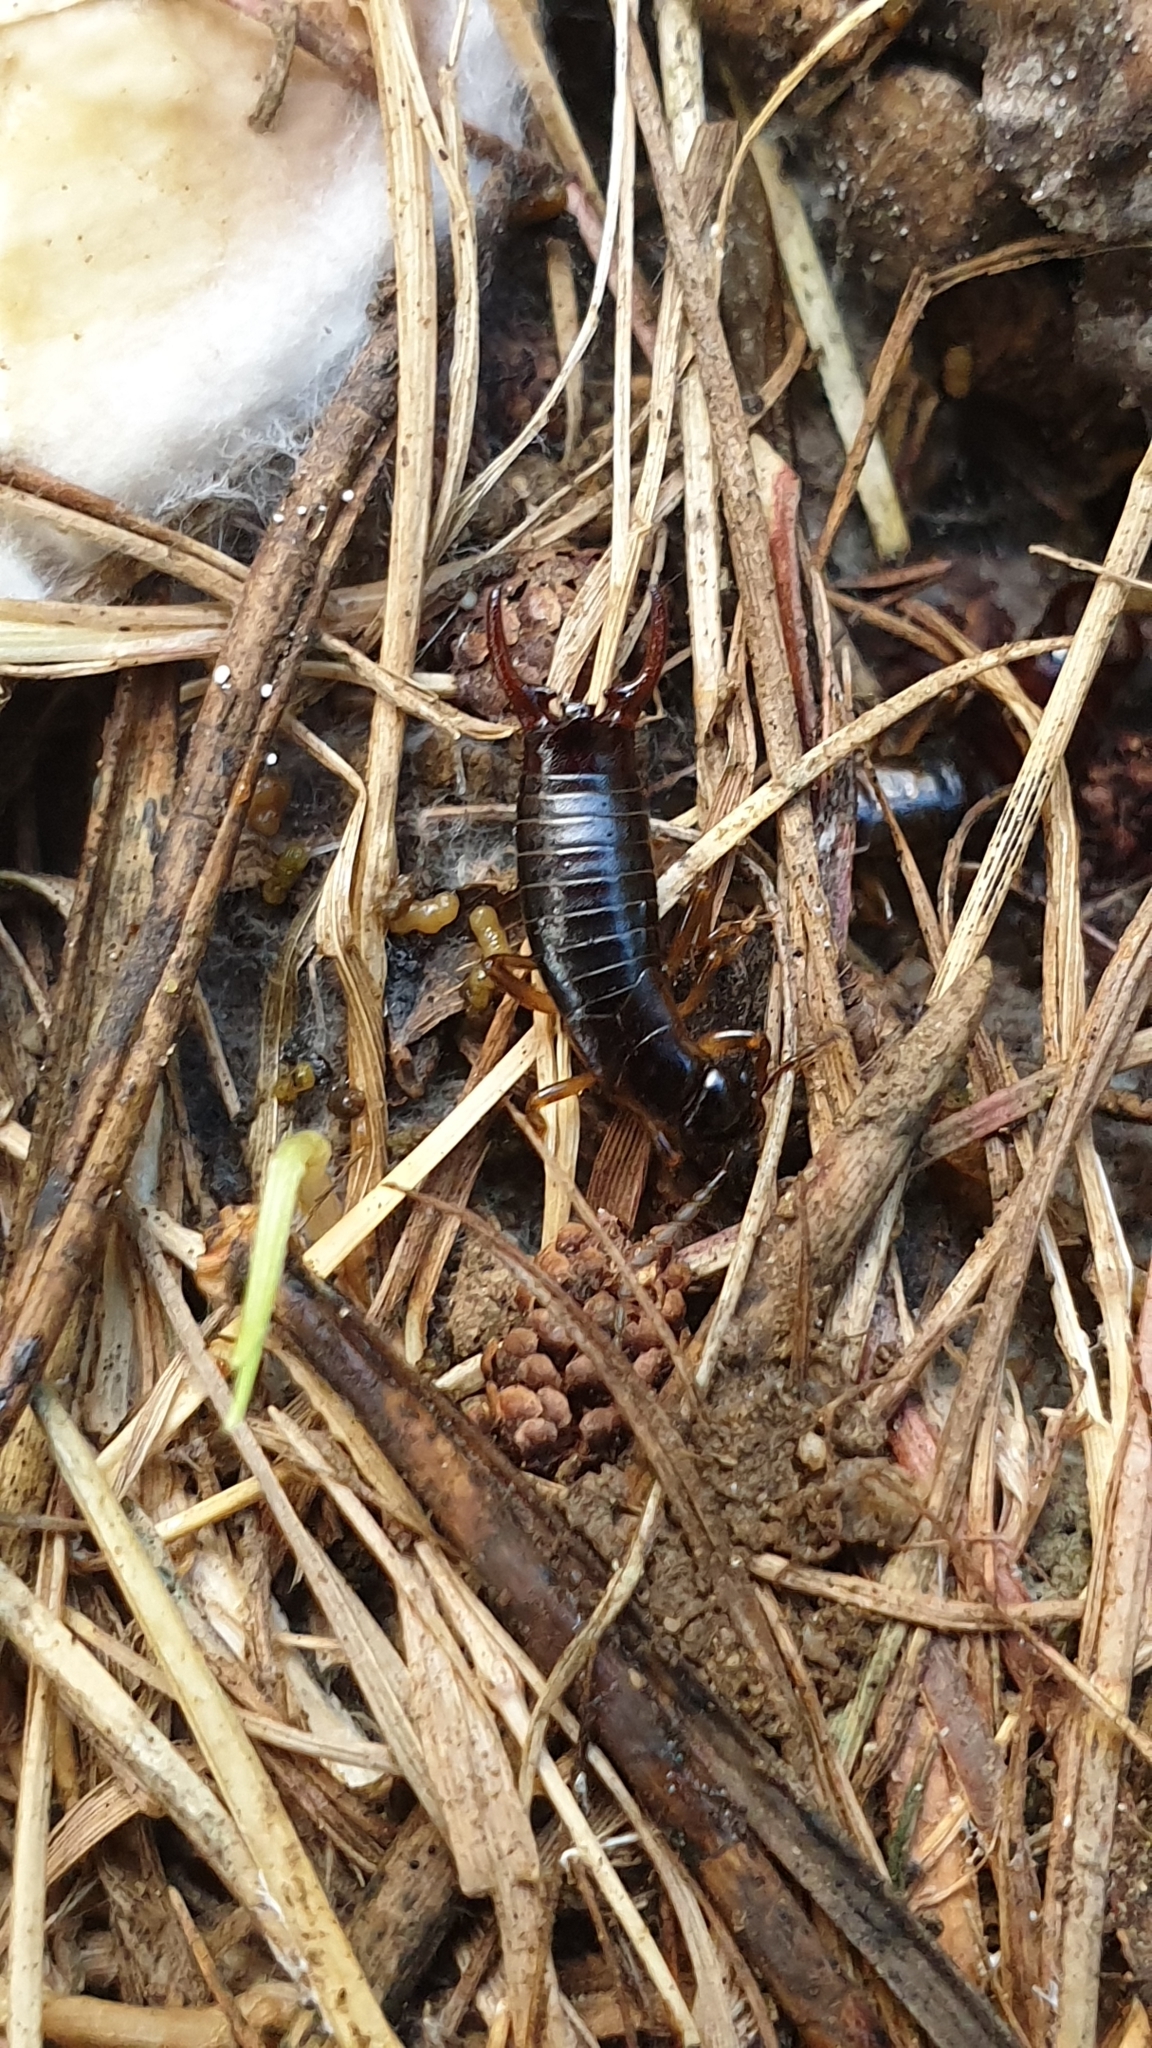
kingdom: Animalia
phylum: Arthropoda
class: Insecta
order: Dermaptera
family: Forficulidae
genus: Pseudochelidura
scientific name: Pseudochelidura sinuata
